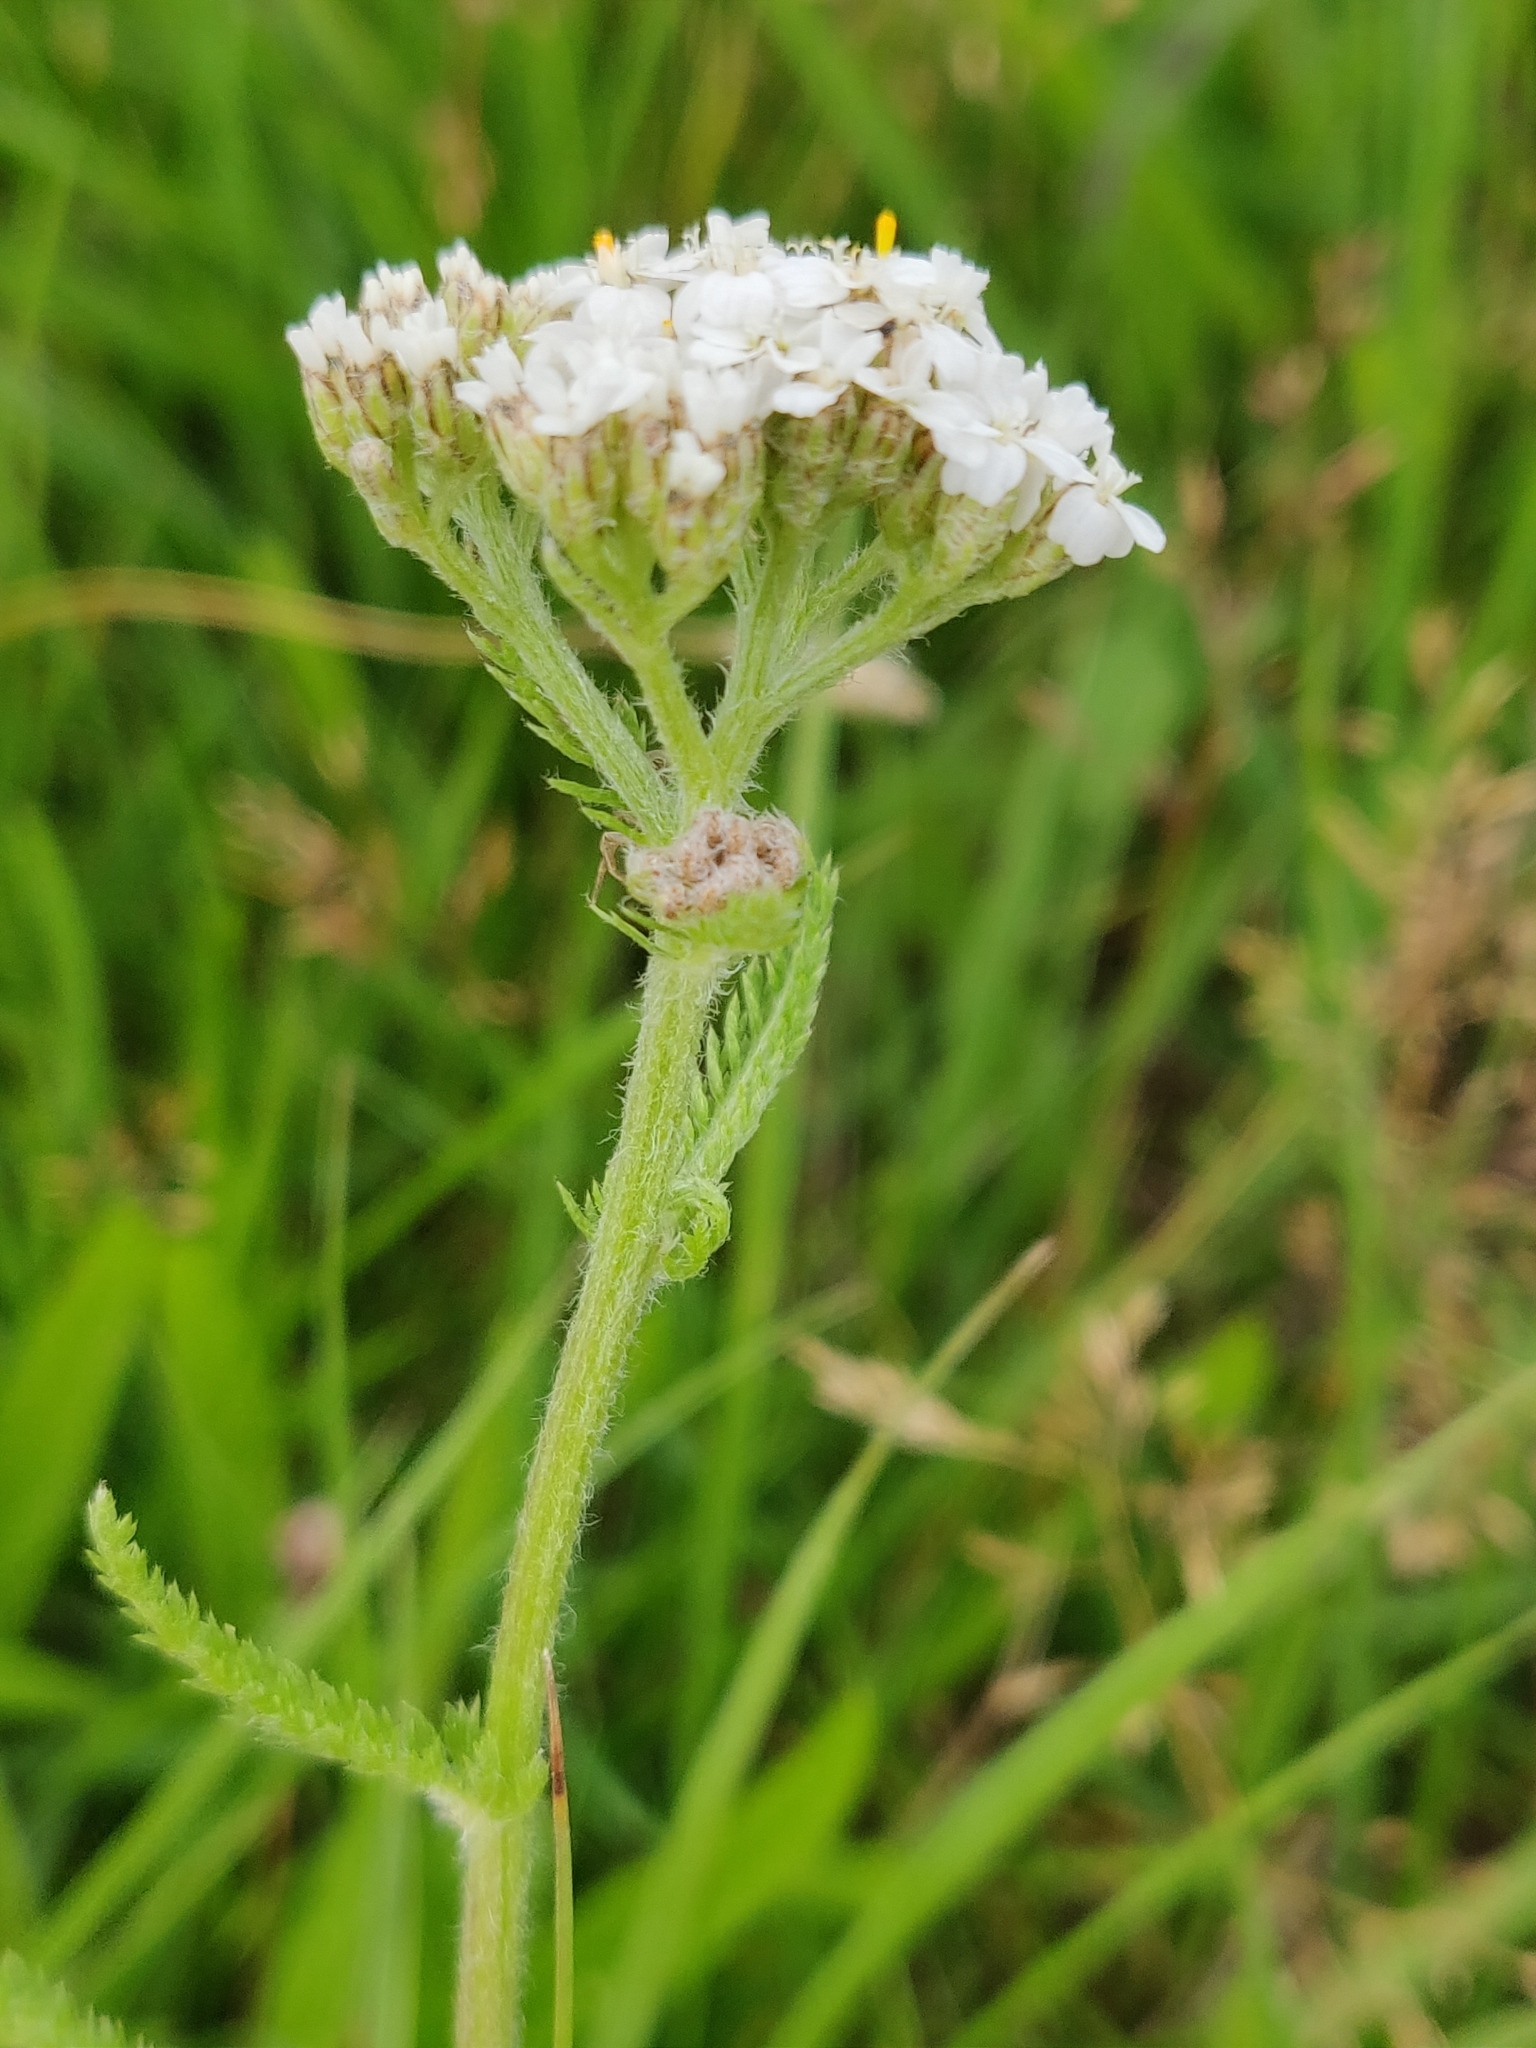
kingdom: Plantae
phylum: Tracheophyta
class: Magnoliopsida
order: Asterales
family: Asteraceae
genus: Achillea
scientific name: Achillea millefolium
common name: Yarrow
